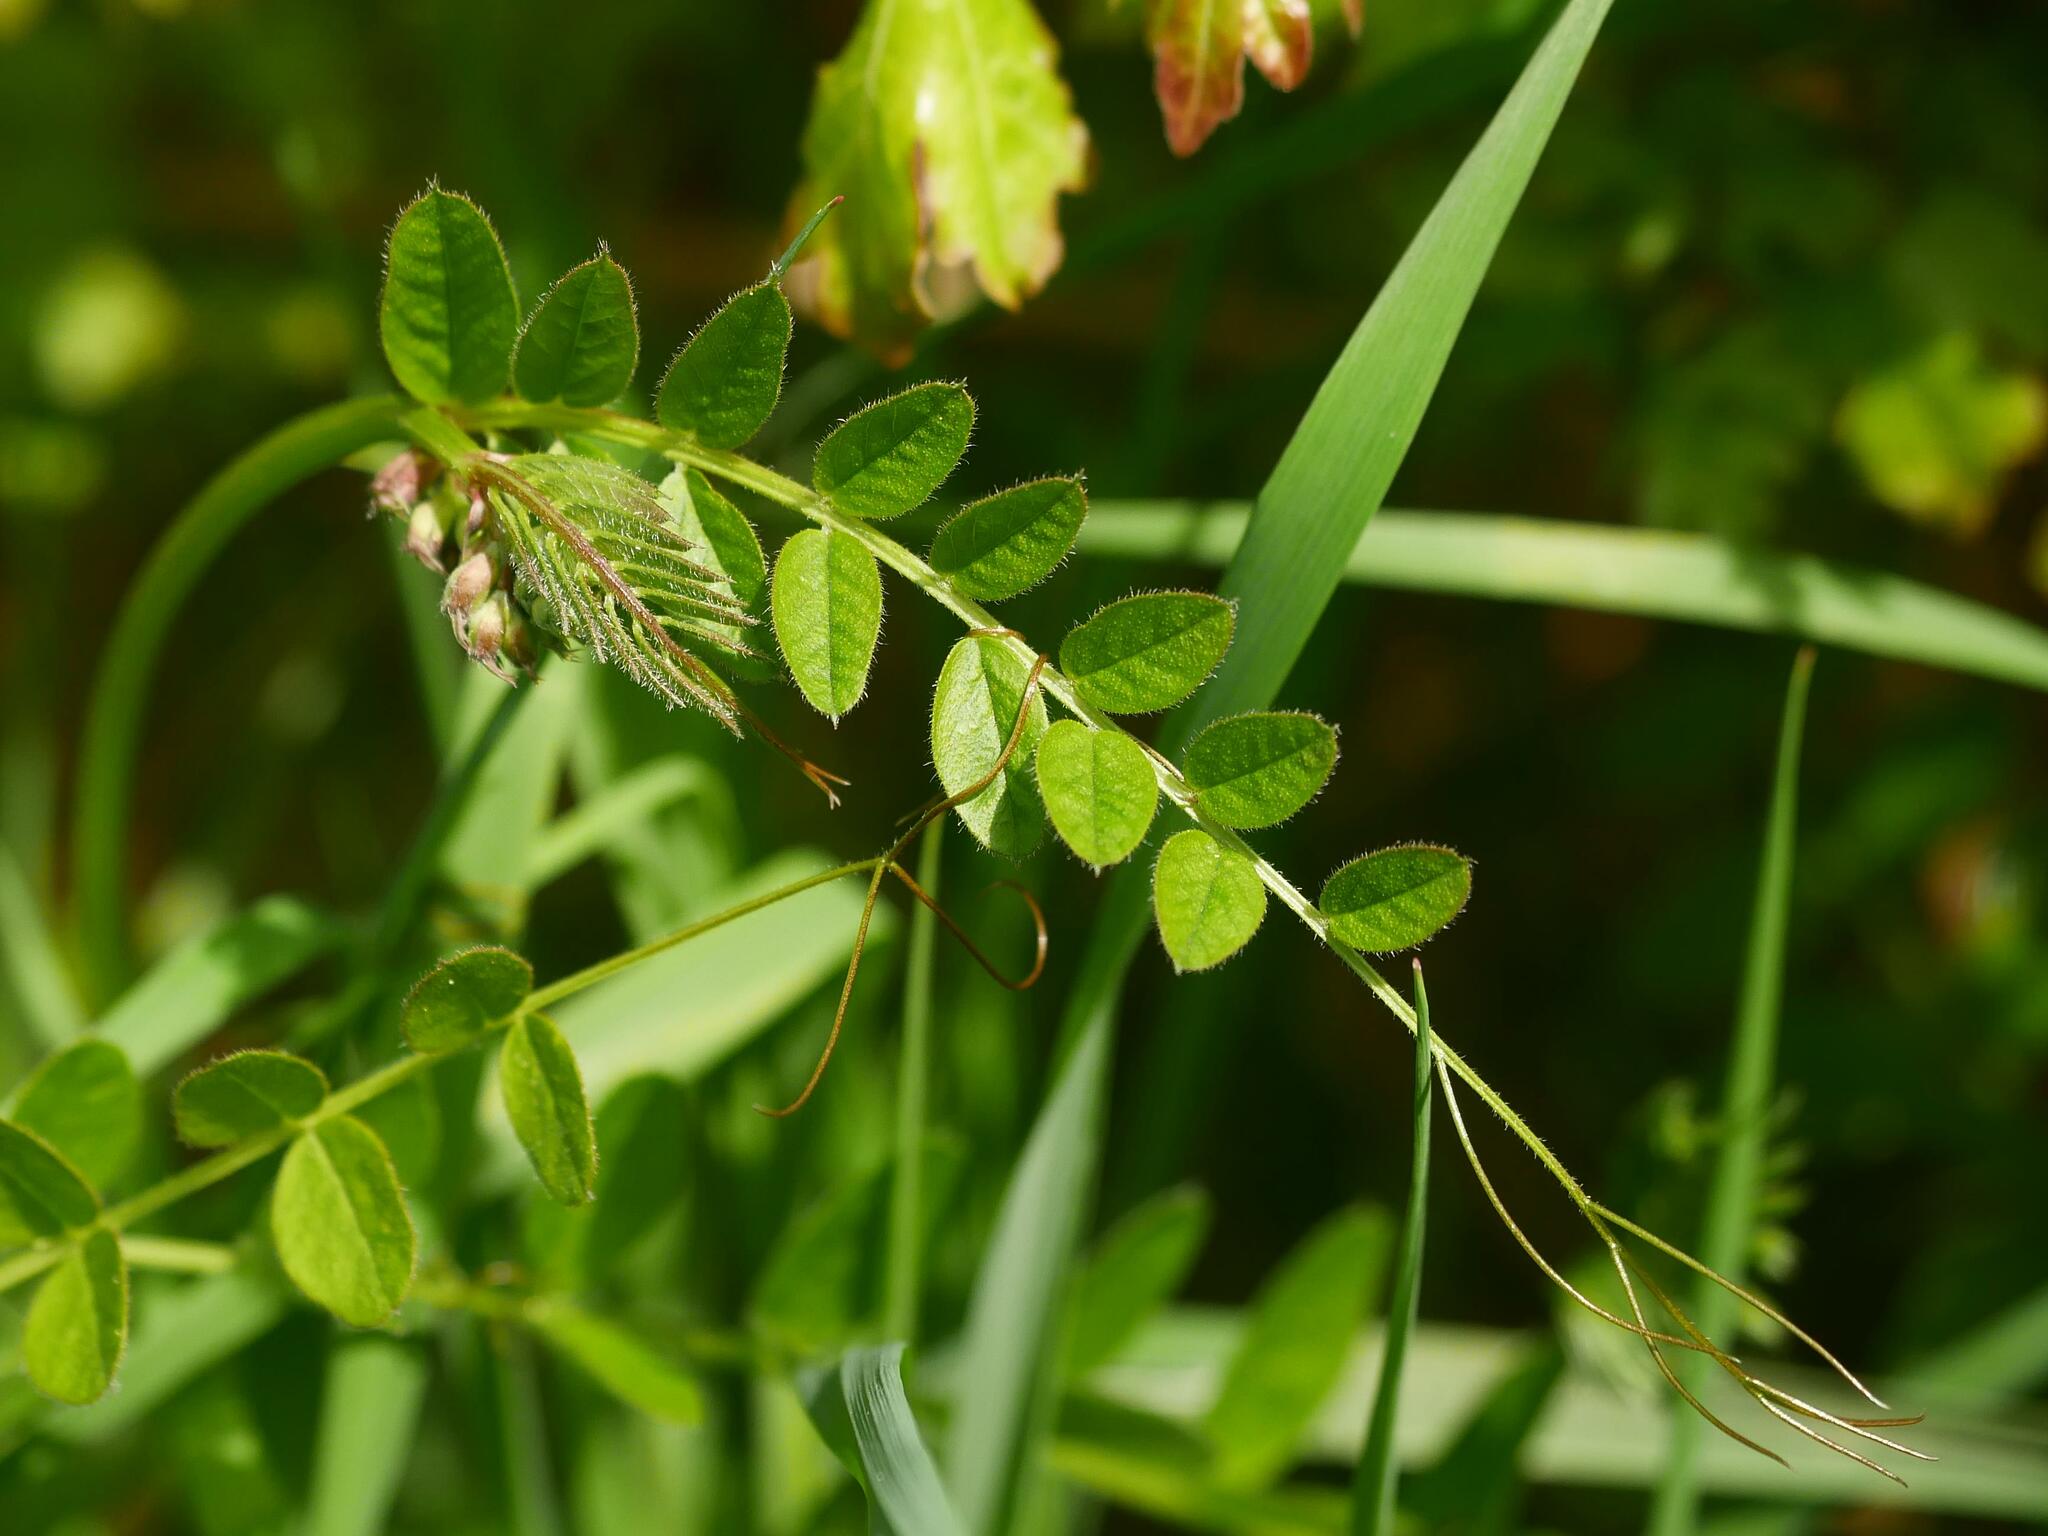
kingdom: Plantae
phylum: Tracheophyta
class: Magnoliopsida
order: Fabales
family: Fabaceae
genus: Vicia
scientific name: Vicia sepium
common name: Bush vetch
